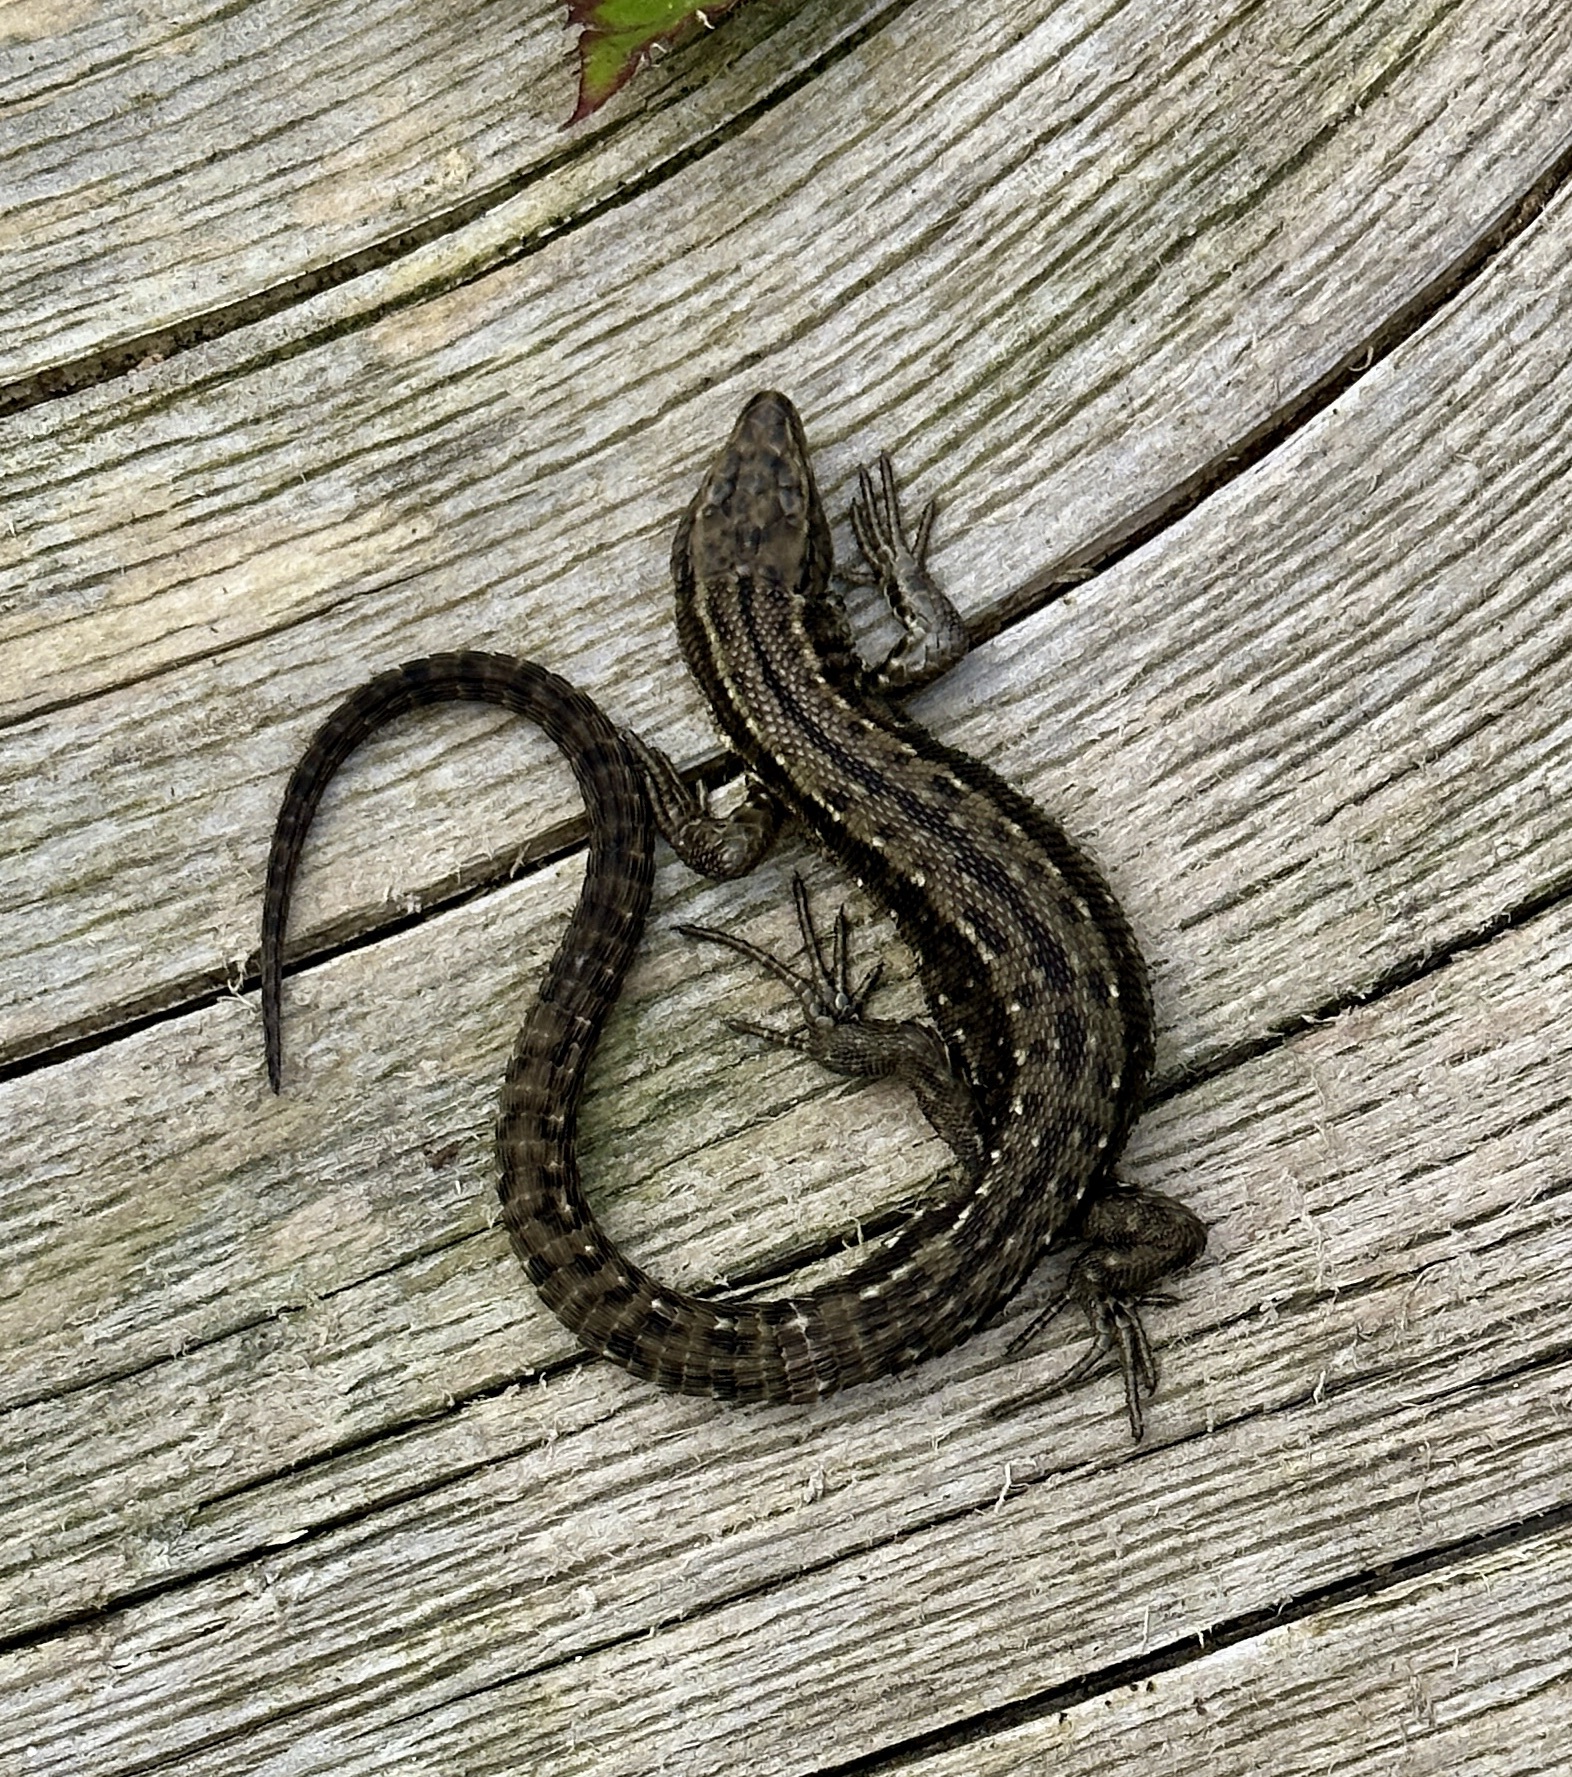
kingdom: Animalia
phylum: Chordata
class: Squamata
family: Lacertidae
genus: Zootoca
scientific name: Zootoca vivipara
